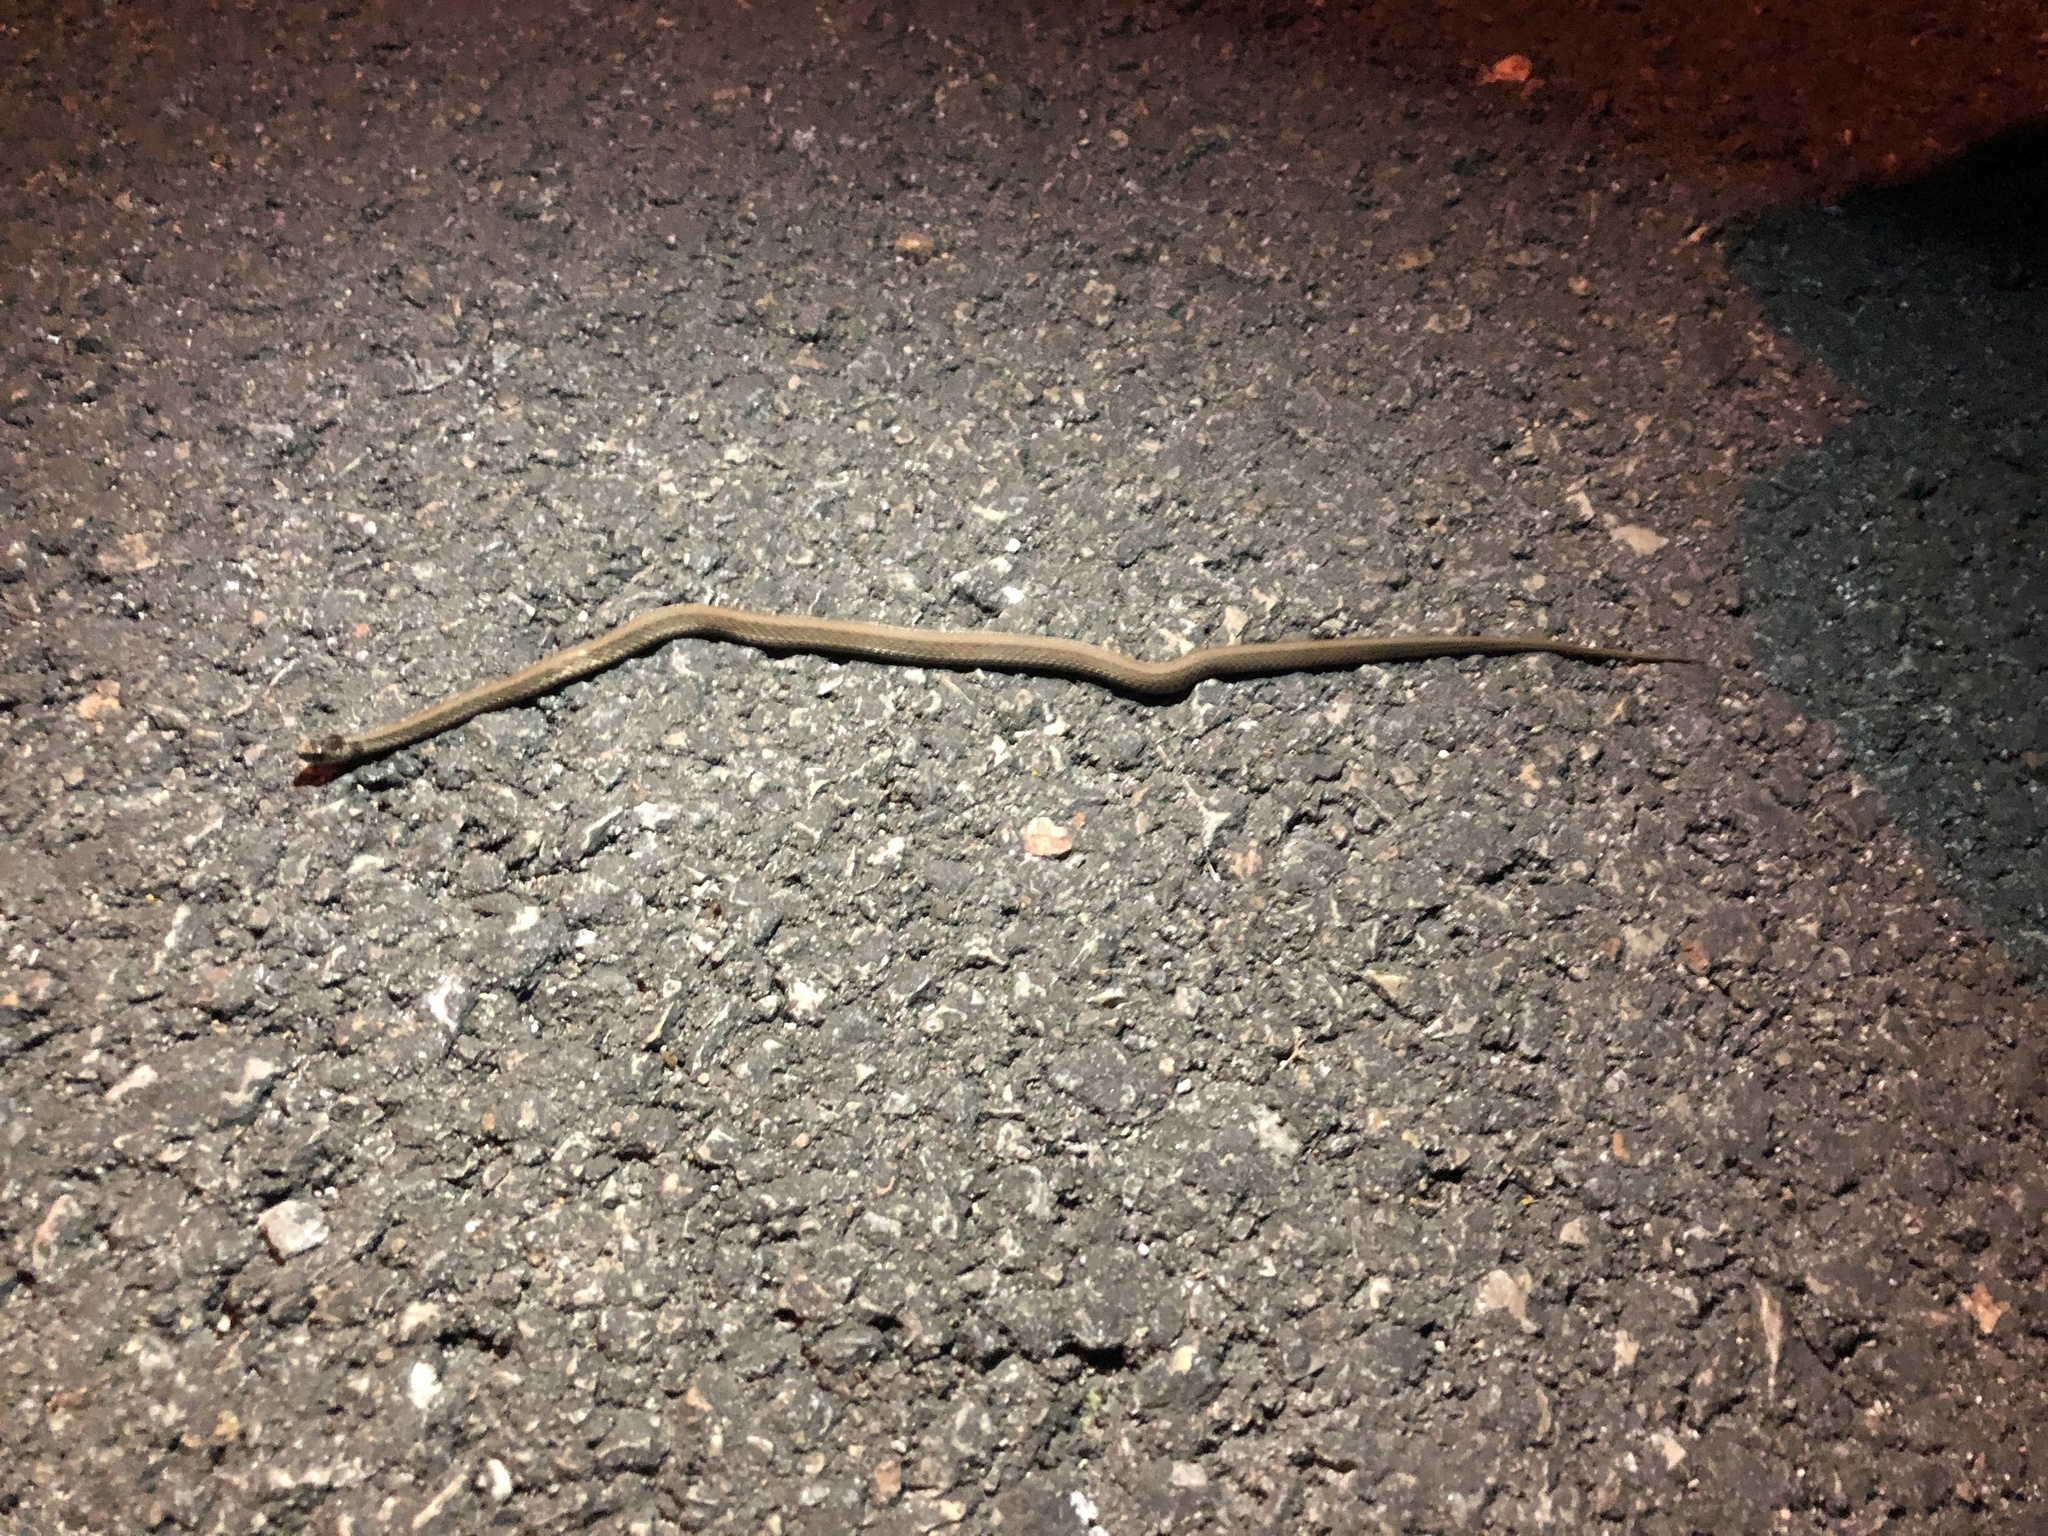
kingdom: Animalia
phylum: Chordata
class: Squamata
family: Colubridae
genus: Storeria
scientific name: Storeria dekayi
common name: (dekay’s) brown snake
